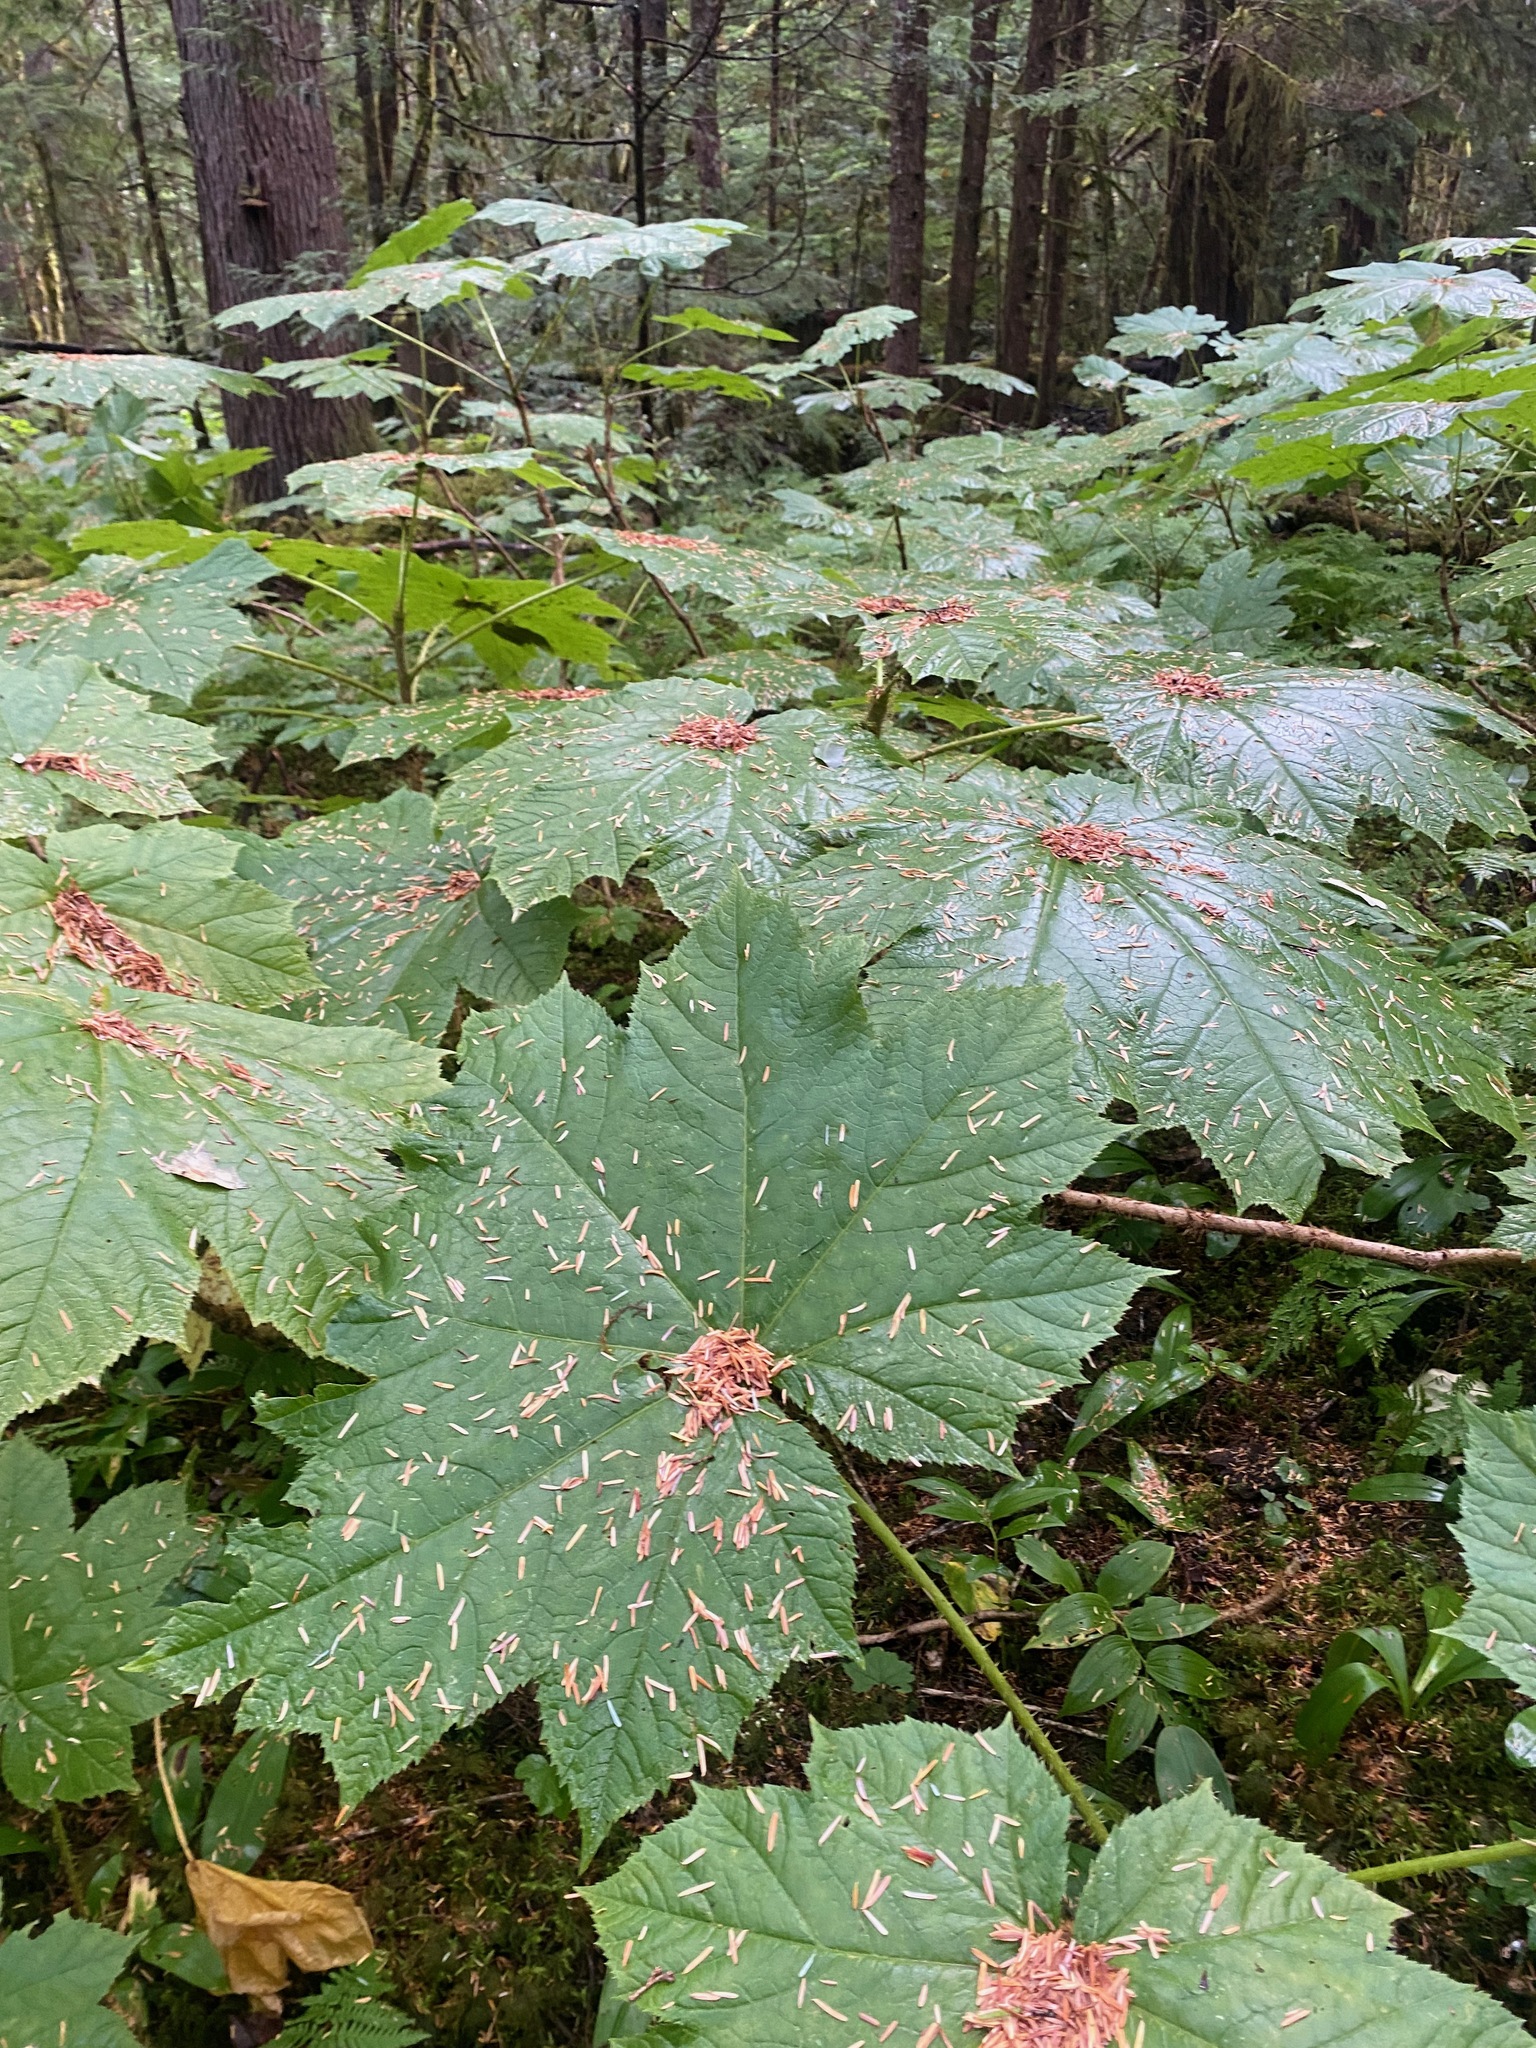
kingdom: Plantae
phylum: Tracheophyta
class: Magnoliopsida
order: Apiales
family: Araliaceae
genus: Oplopanax
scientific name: Oplopanax horridus
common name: Devil's walking-stick
